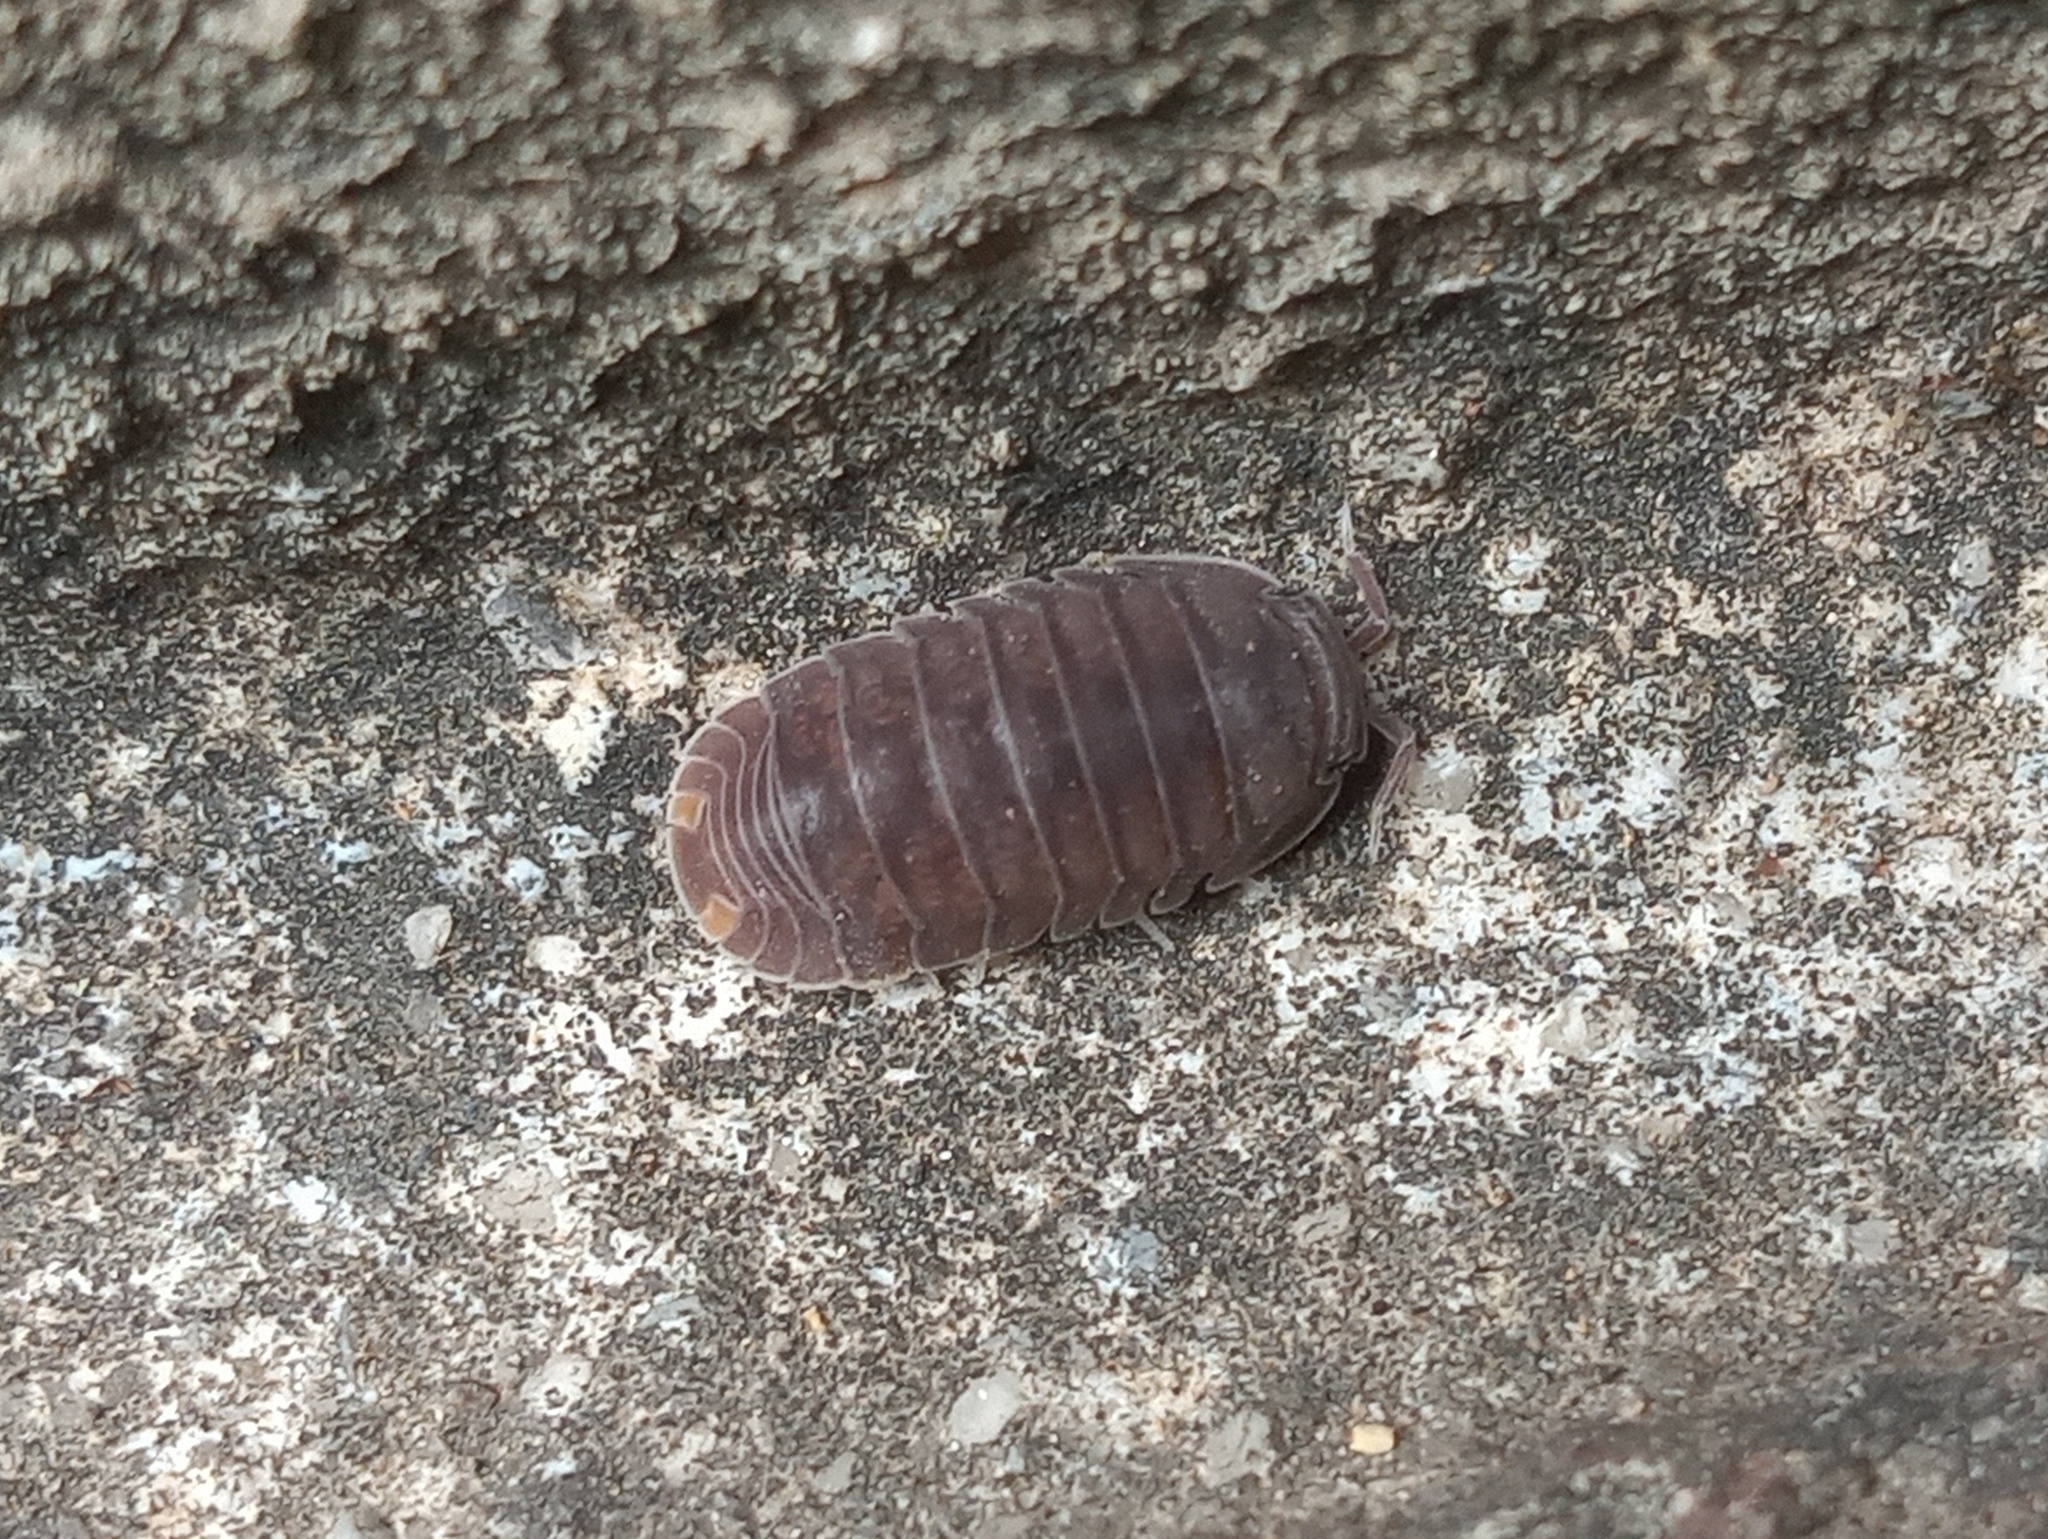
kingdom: Animalia
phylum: Arthropoda
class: Malacostraca
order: Isopoda
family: Armadillidae
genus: Cubaris
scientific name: Cubaris murina
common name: Pillbug
